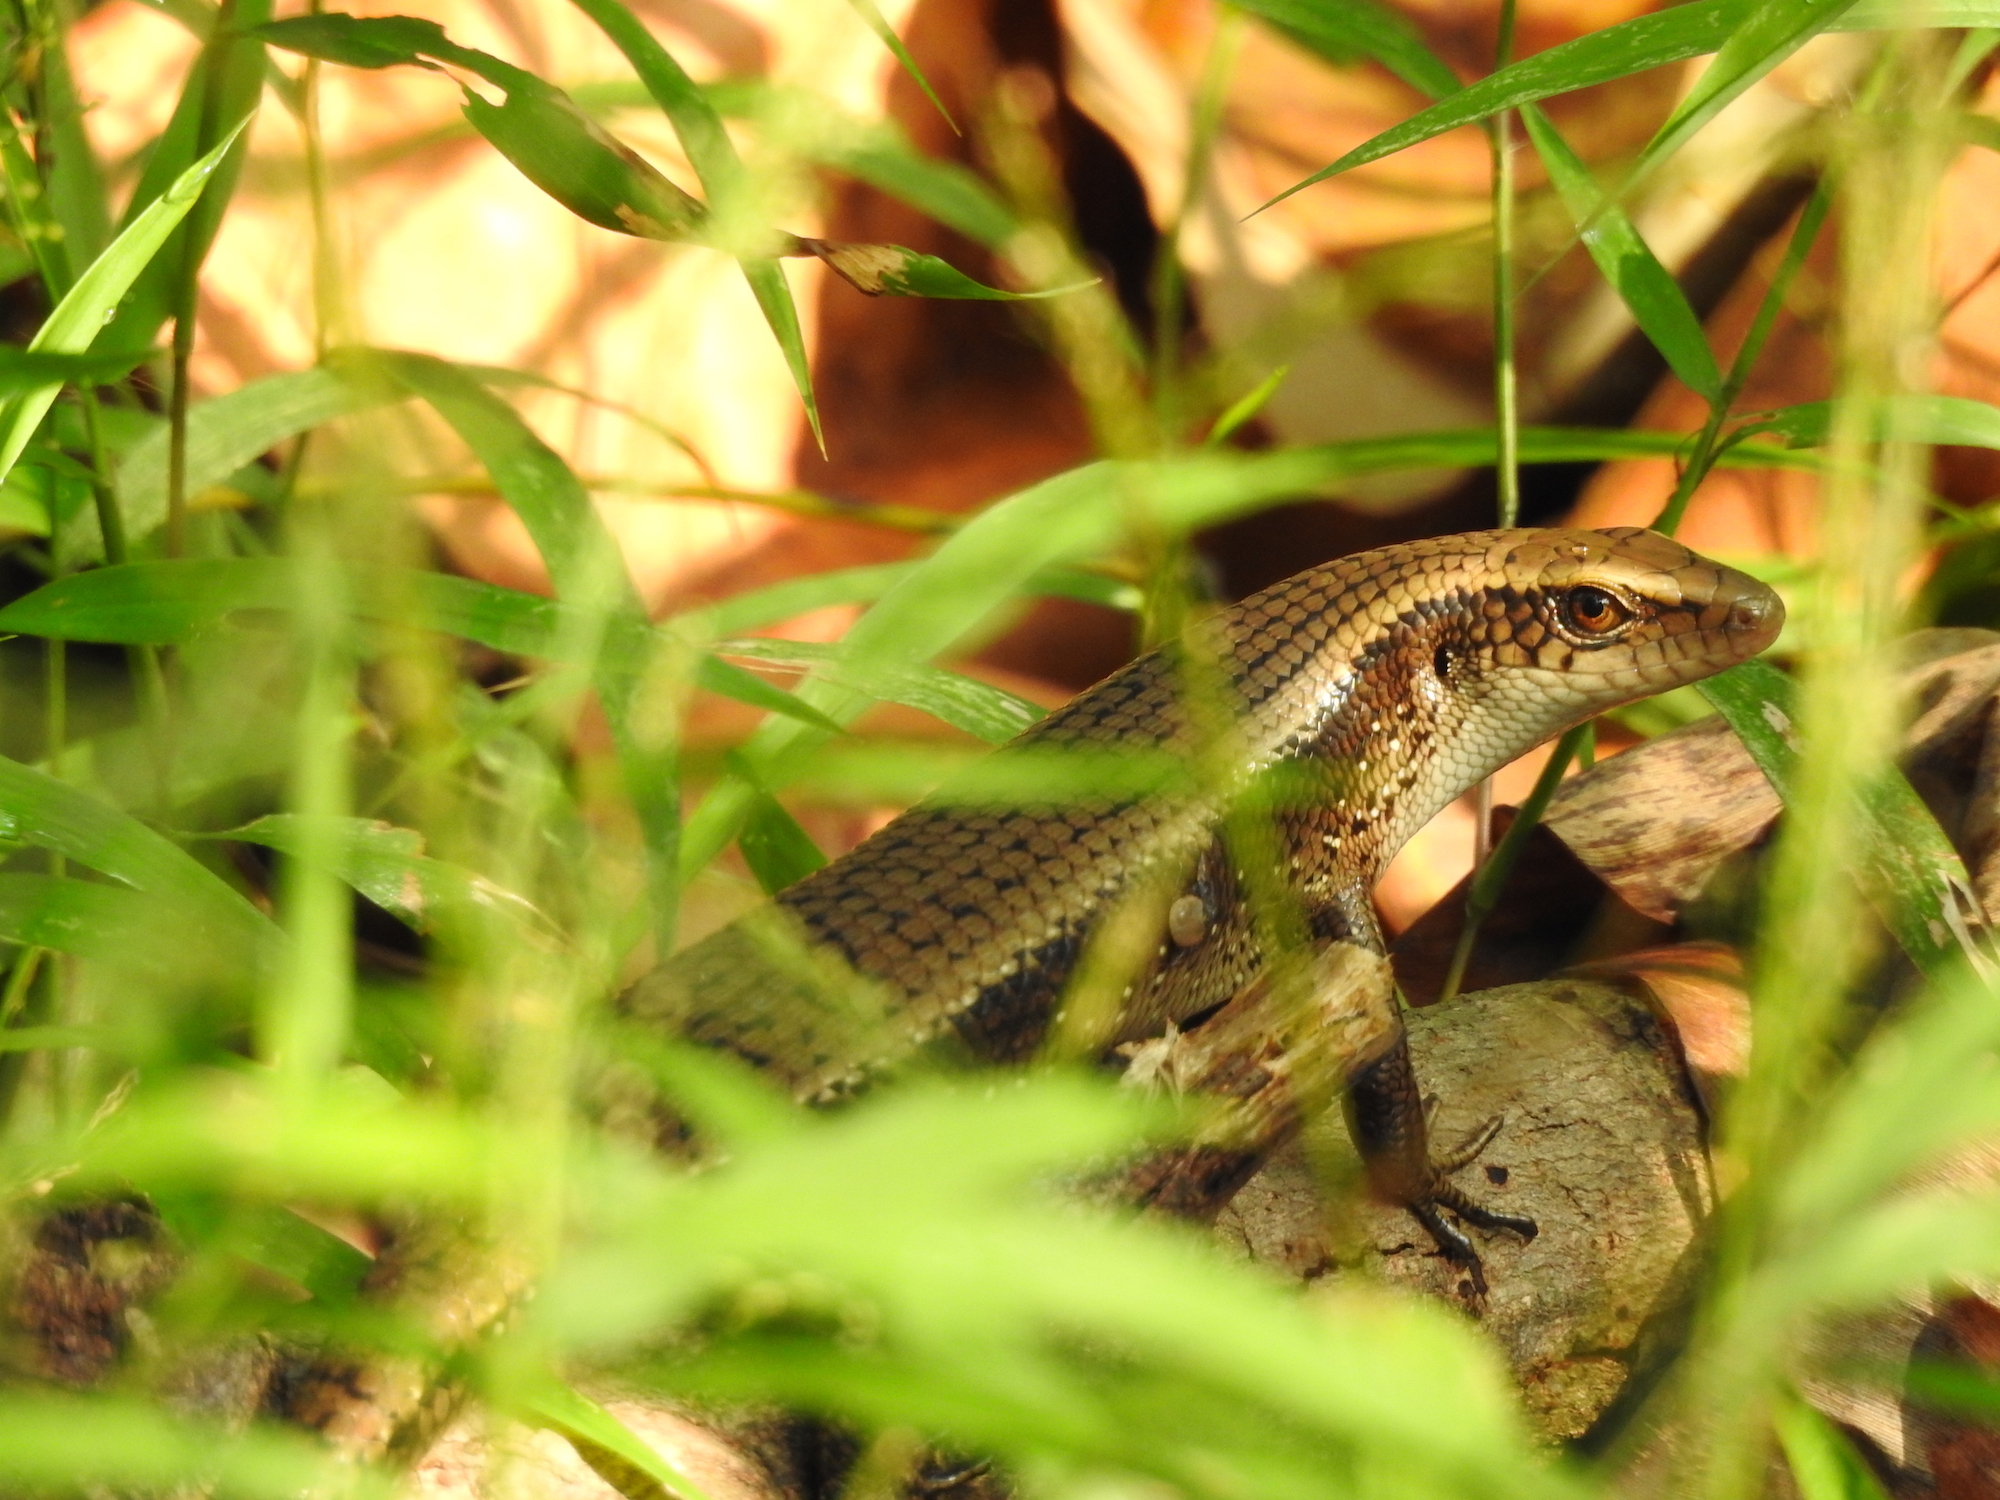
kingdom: Animalia
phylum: Chordata
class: Squamata
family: Scincidae
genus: Eutropis
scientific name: Eutropis multifasciata
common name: Common mabuya
